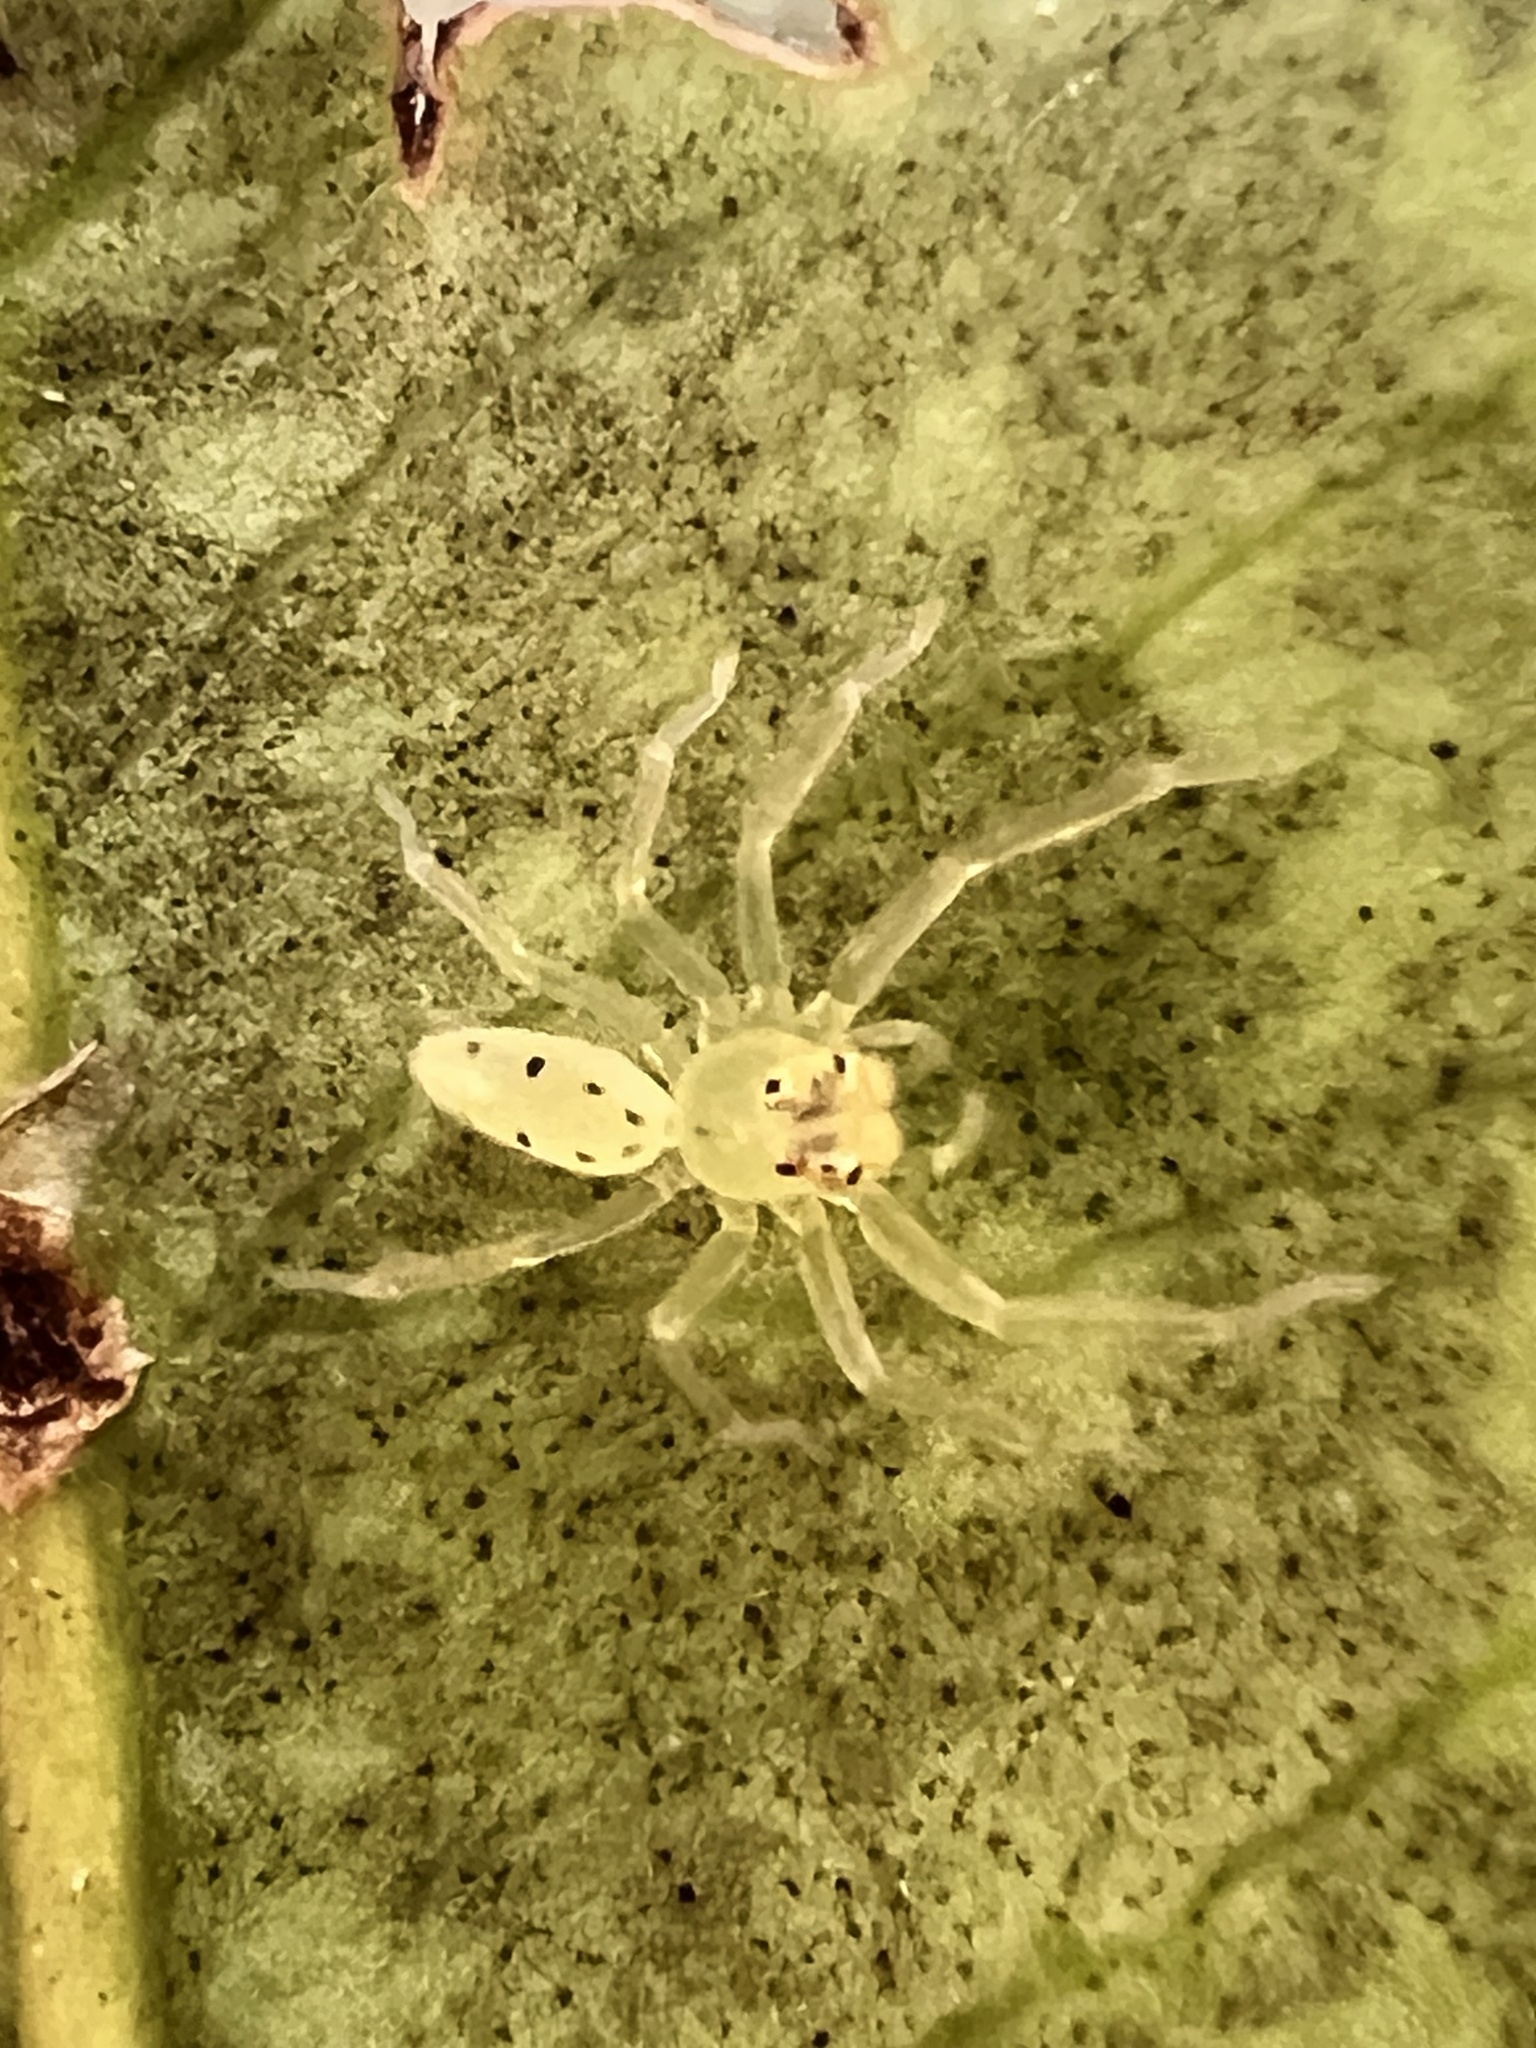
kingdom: Animalia
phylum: Arthropoda
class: Arachnida
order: Araneae
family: Salticidae
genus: Lyssomanes
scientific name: Lyssomanes viridis
